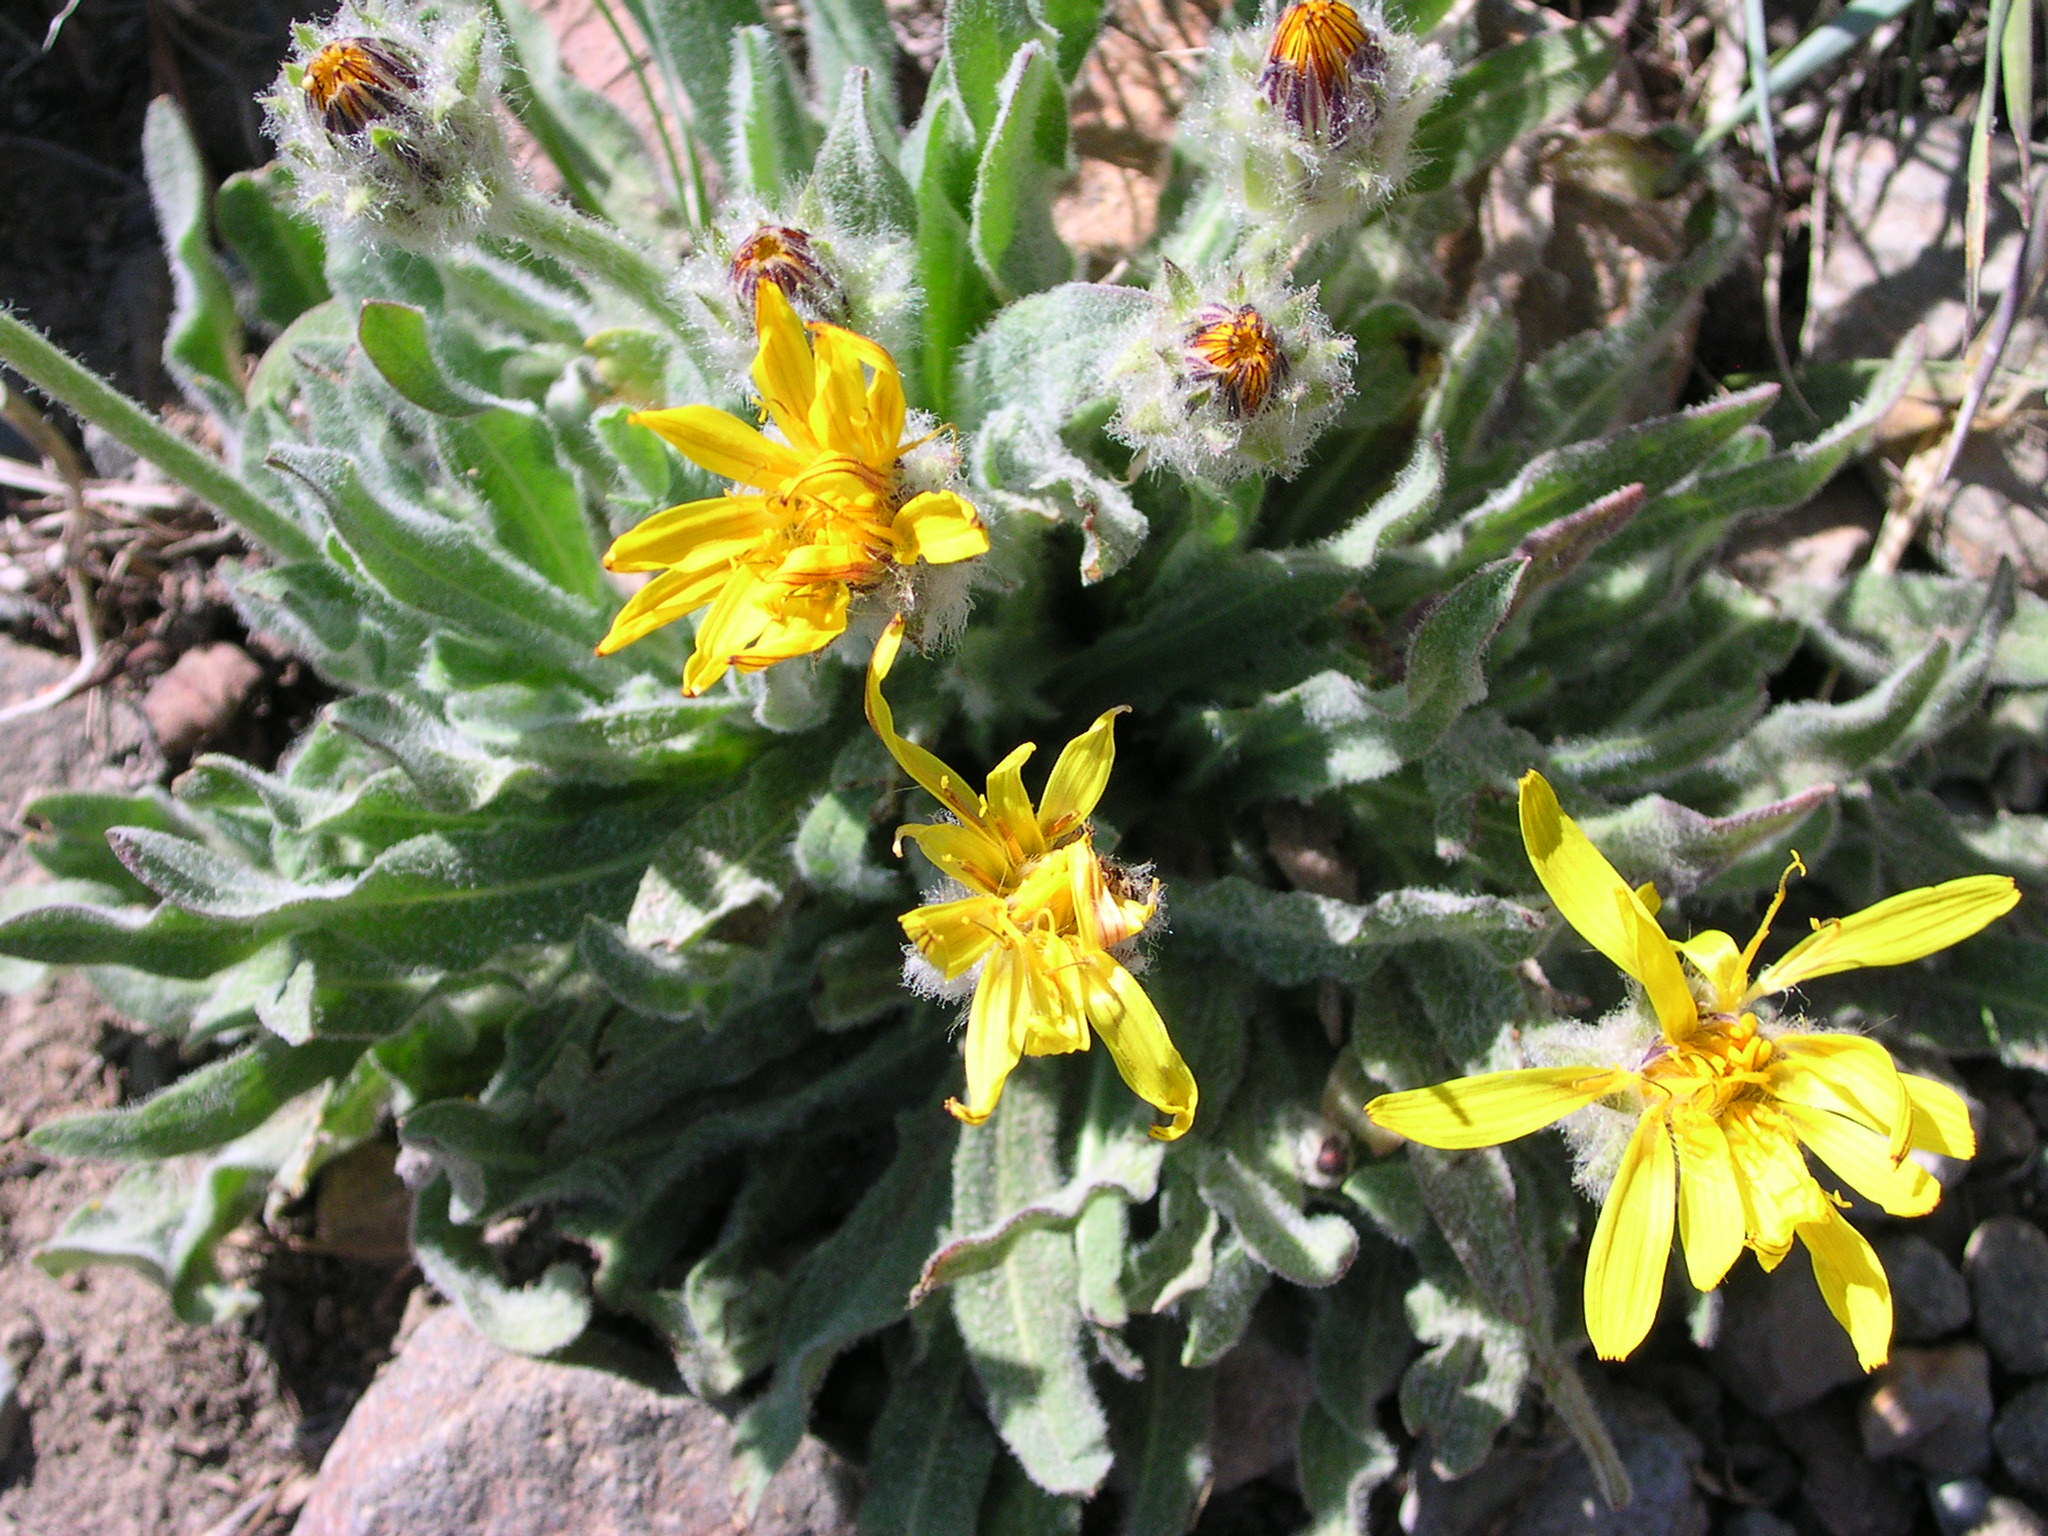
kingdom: Plantae
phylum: Tracheophyta
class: Magnoliopsida
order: Asterales
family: Asteraceae
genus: Agoseris
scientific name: Agoseris glauca
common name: Prairie agoseris
